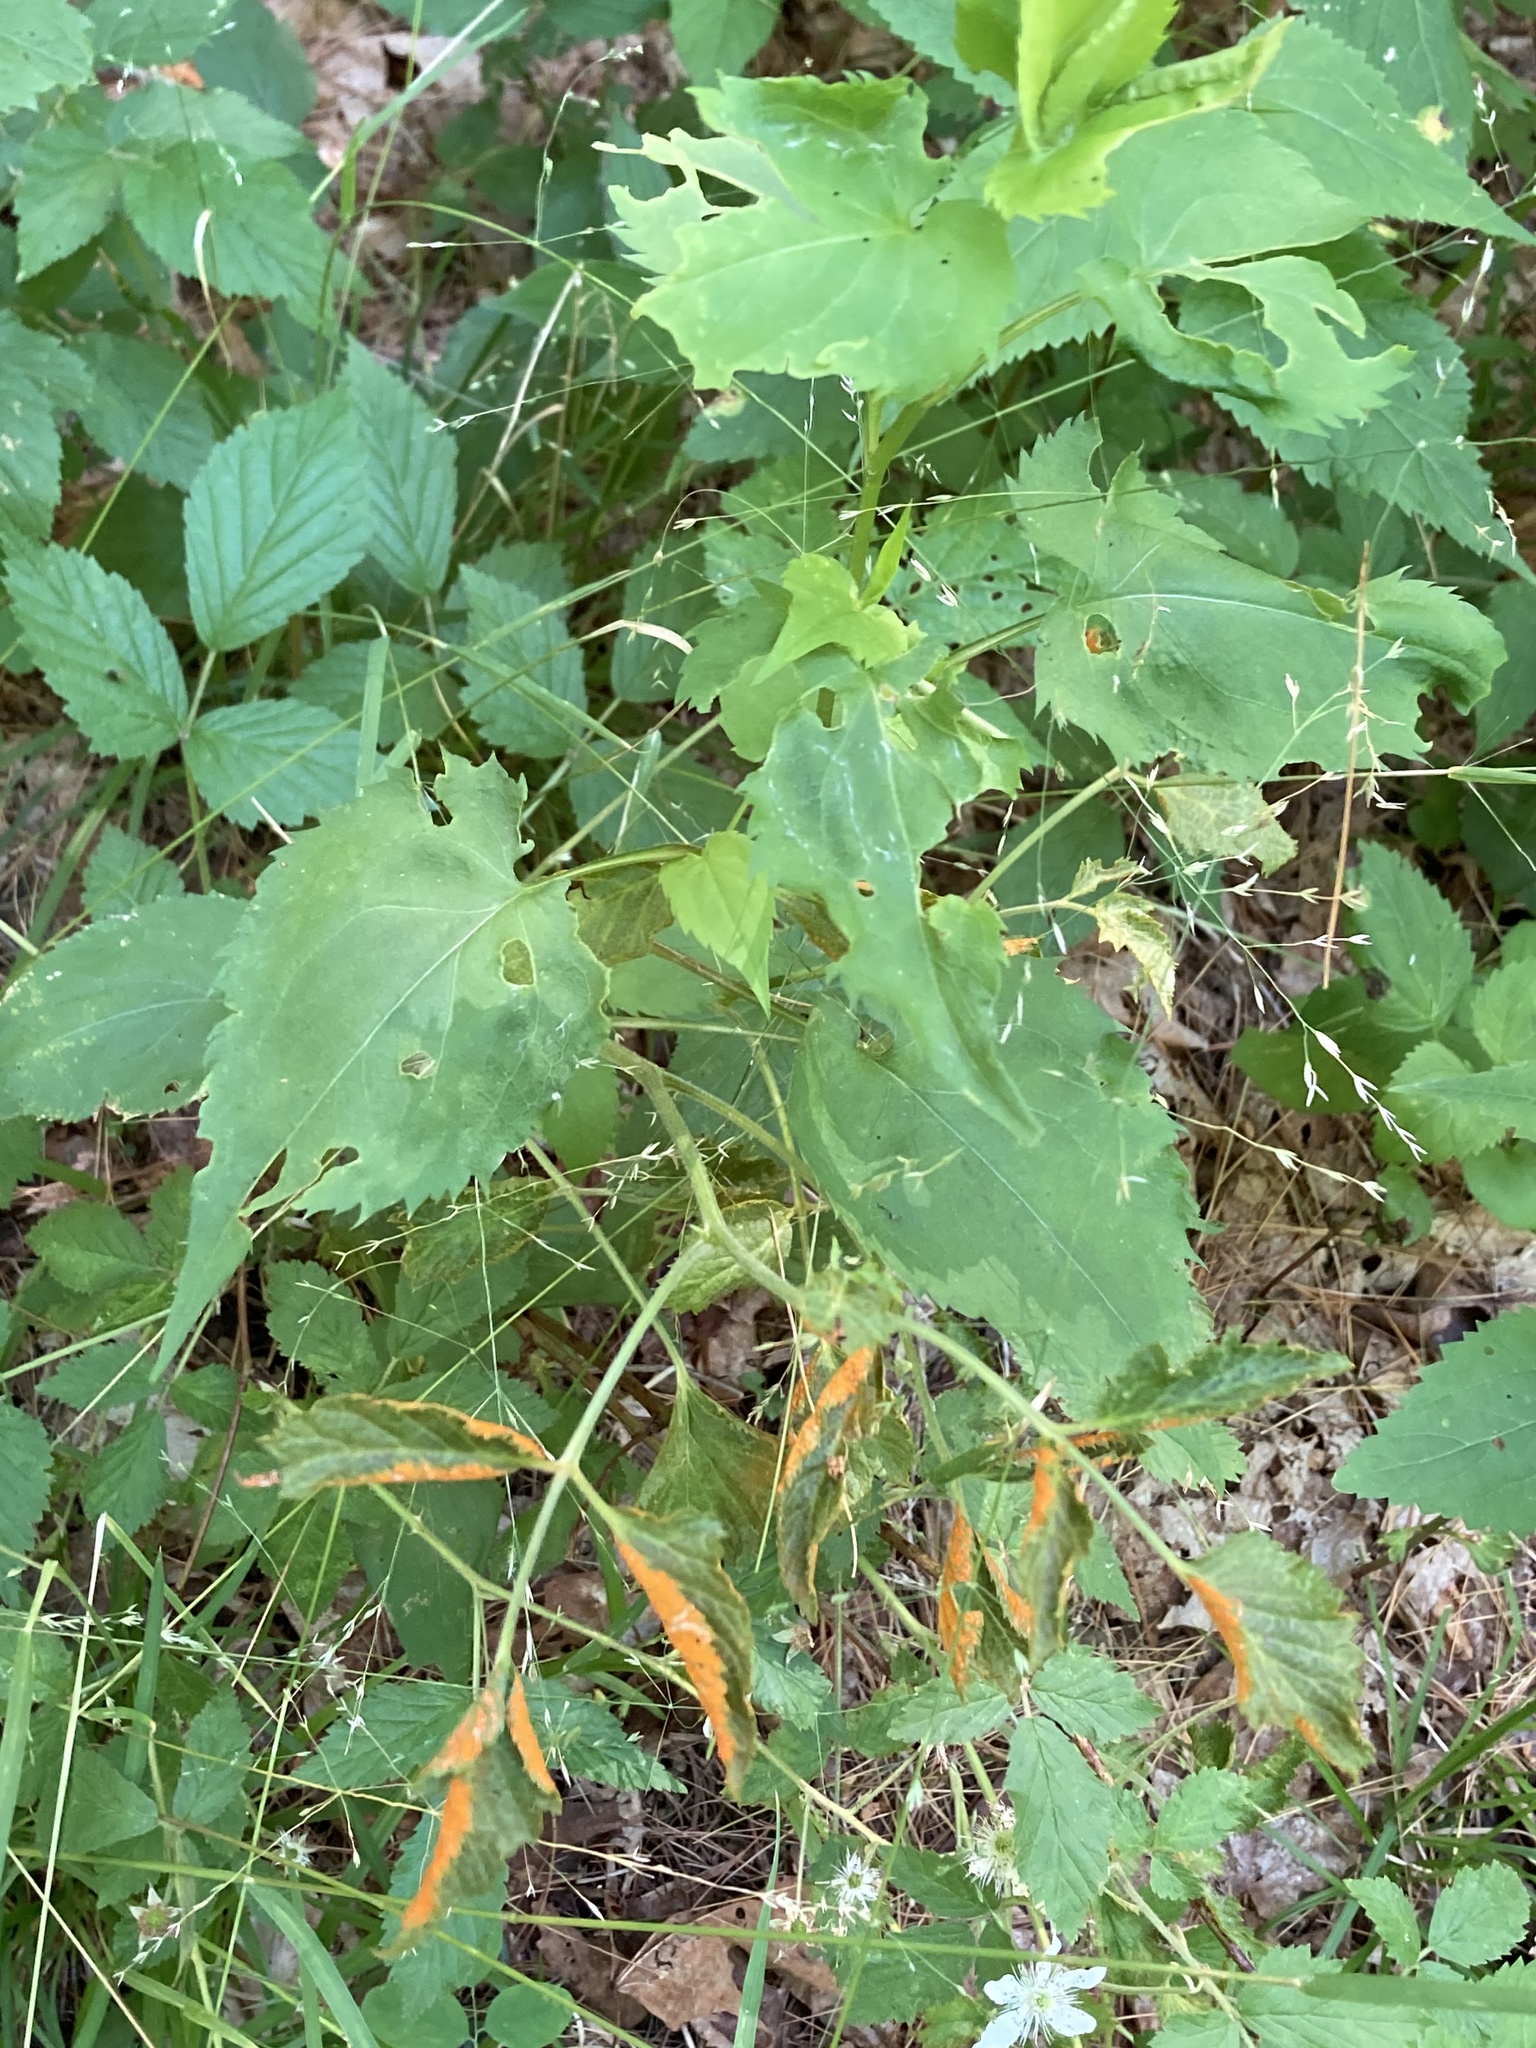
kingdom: Fungi
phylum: Basidiomycota
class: Pucciniomycetes
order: Pucciniales
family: Phragmidiaceae
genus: Arthuriomyces
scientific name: Arthuriomyces peckianus
